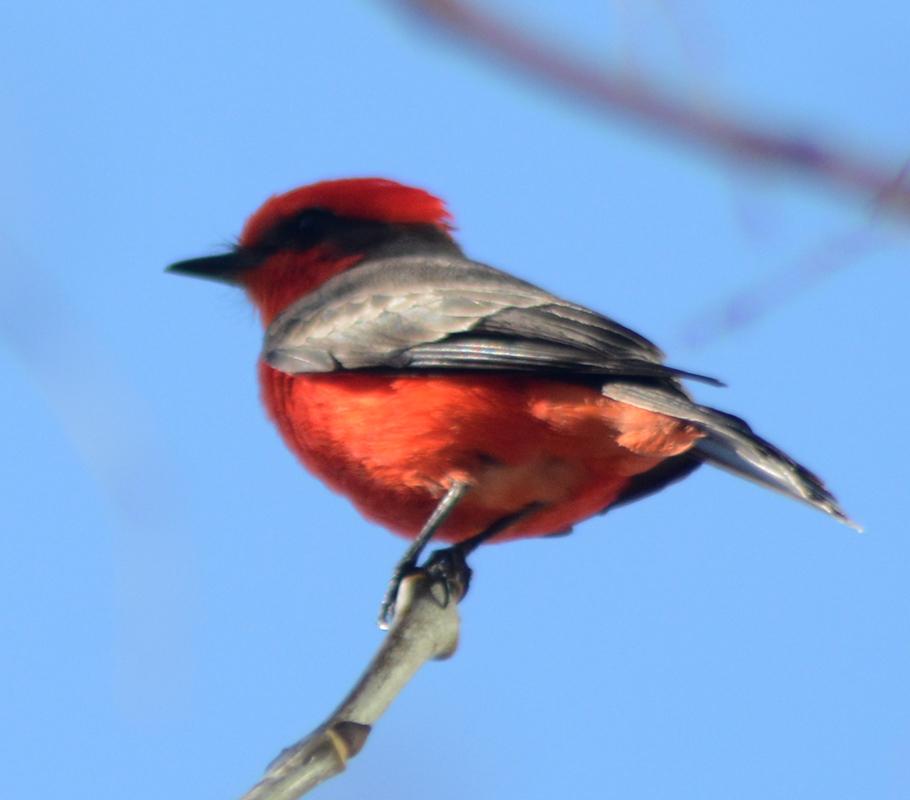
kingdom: Animalia
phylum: Chordata
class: Aves
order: Passeriformes
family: Tyrannidae
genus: Pyrocephalus
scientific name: Pyrocephalus rubinus
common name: Vermilion flycatcher
